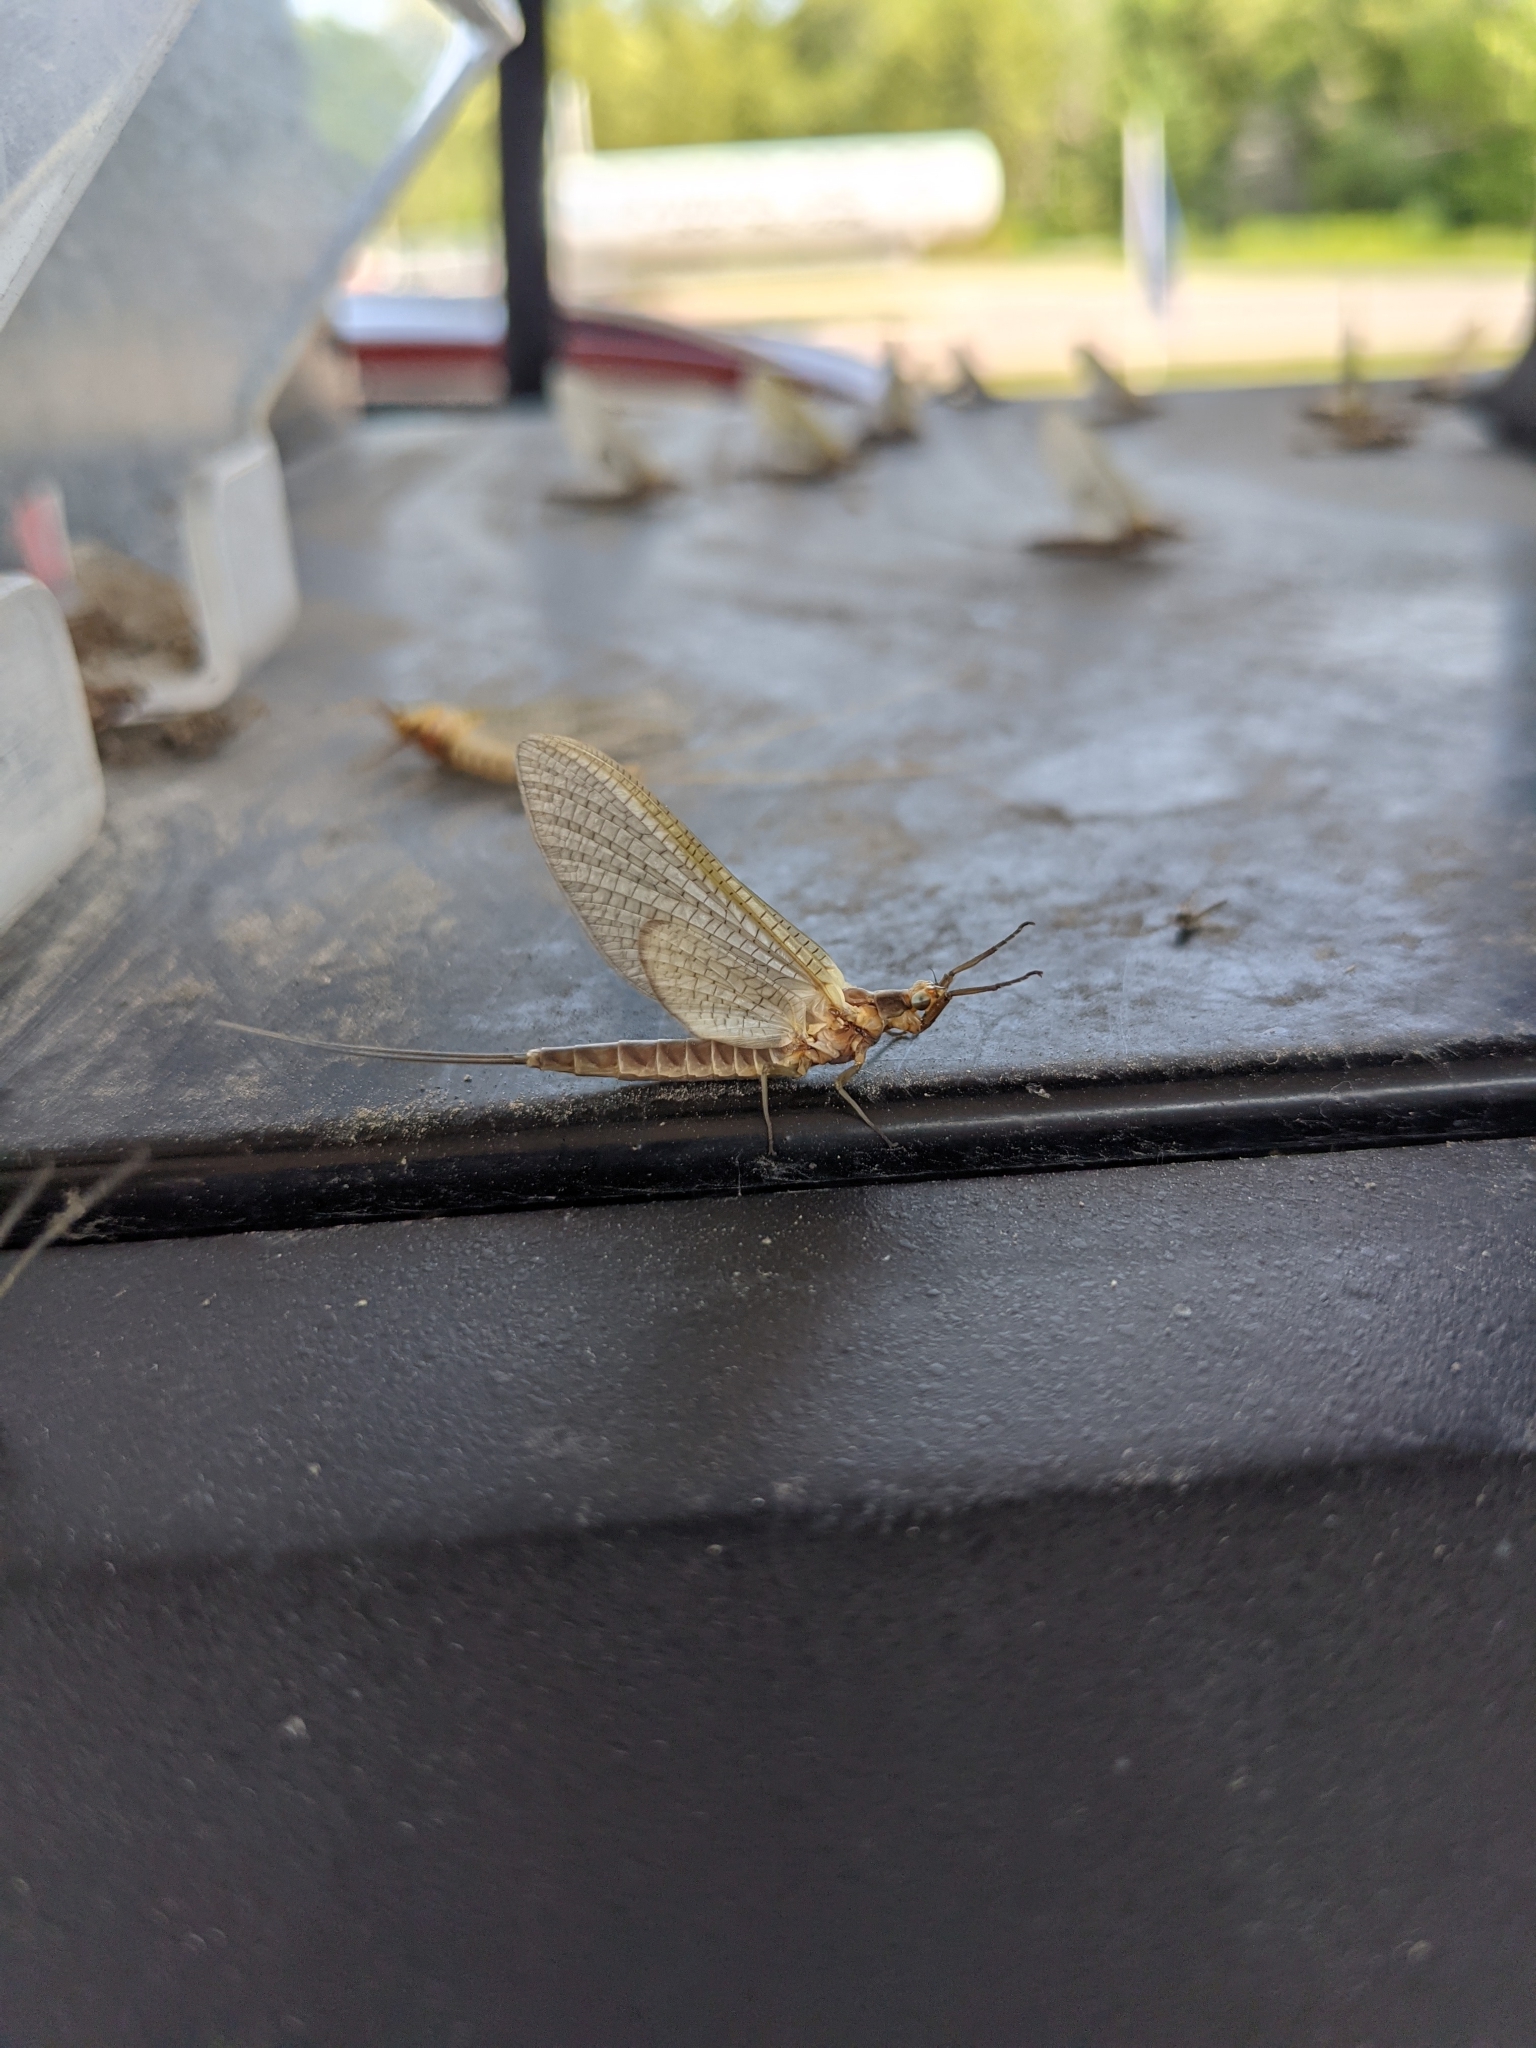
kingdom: Animalia
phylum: Arthropoda
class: Insecta
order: Ephemeroptera
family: Ephemeridae
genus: Hexagenia
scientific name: Hexagenia limbata
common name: Giant mayfly
